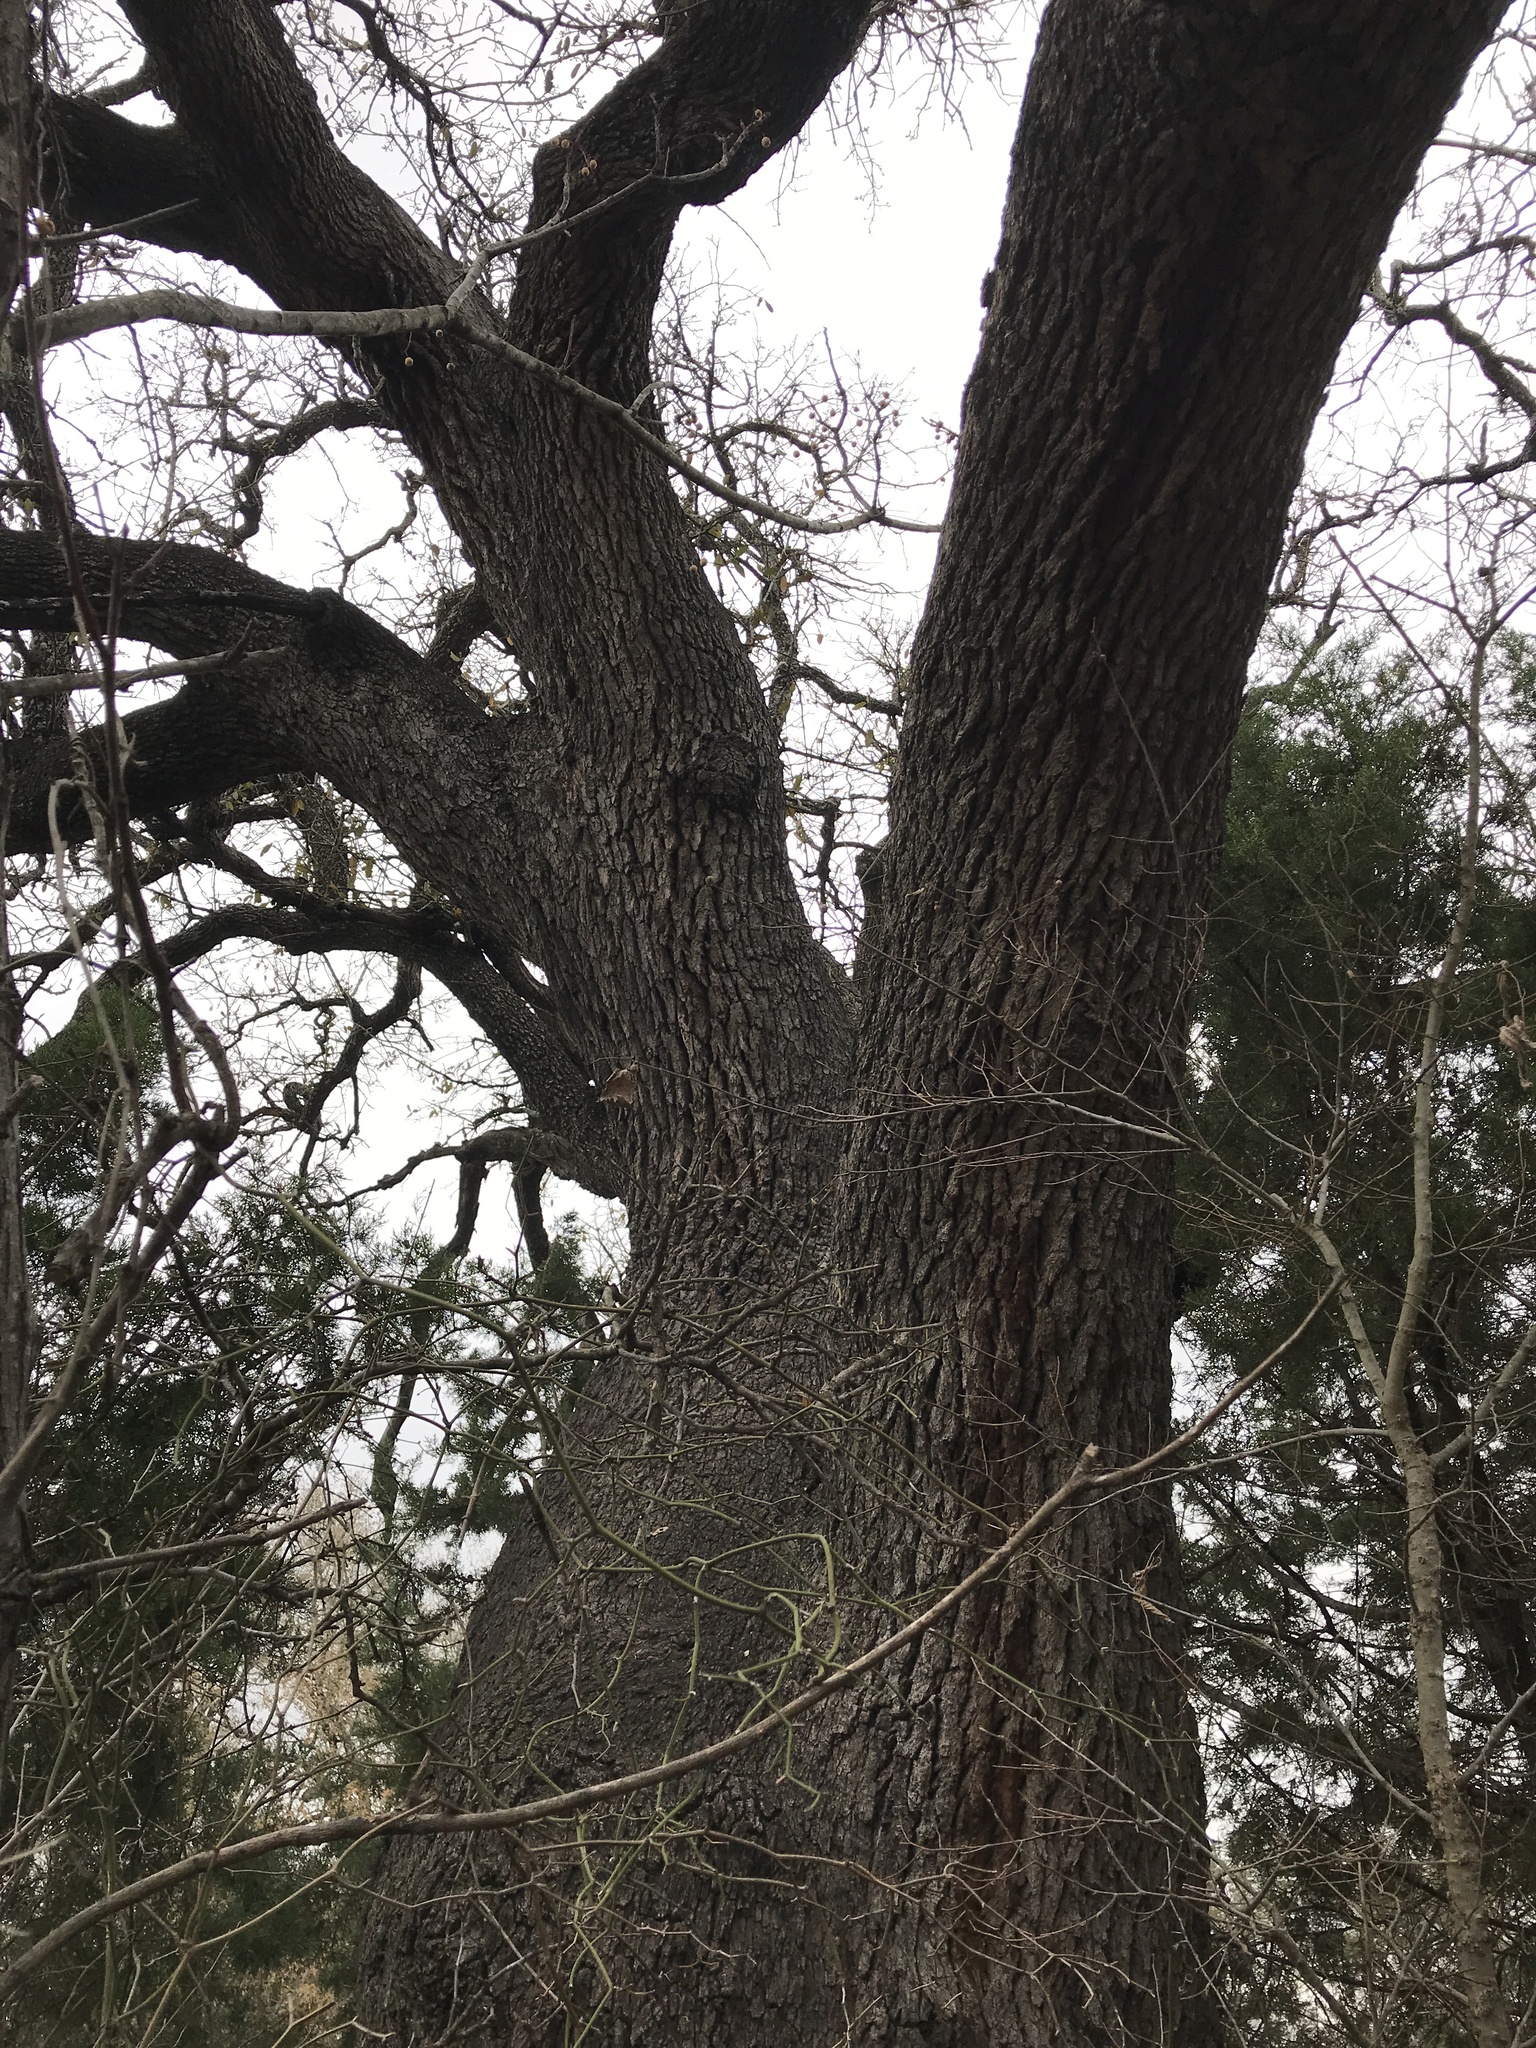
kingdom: Plantae
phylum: Tracheophyta
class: Magnoliopsida
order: Fagales
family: Fagaceae
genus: Quercus
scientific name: Quercus fusiformis
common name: Texas live oak
